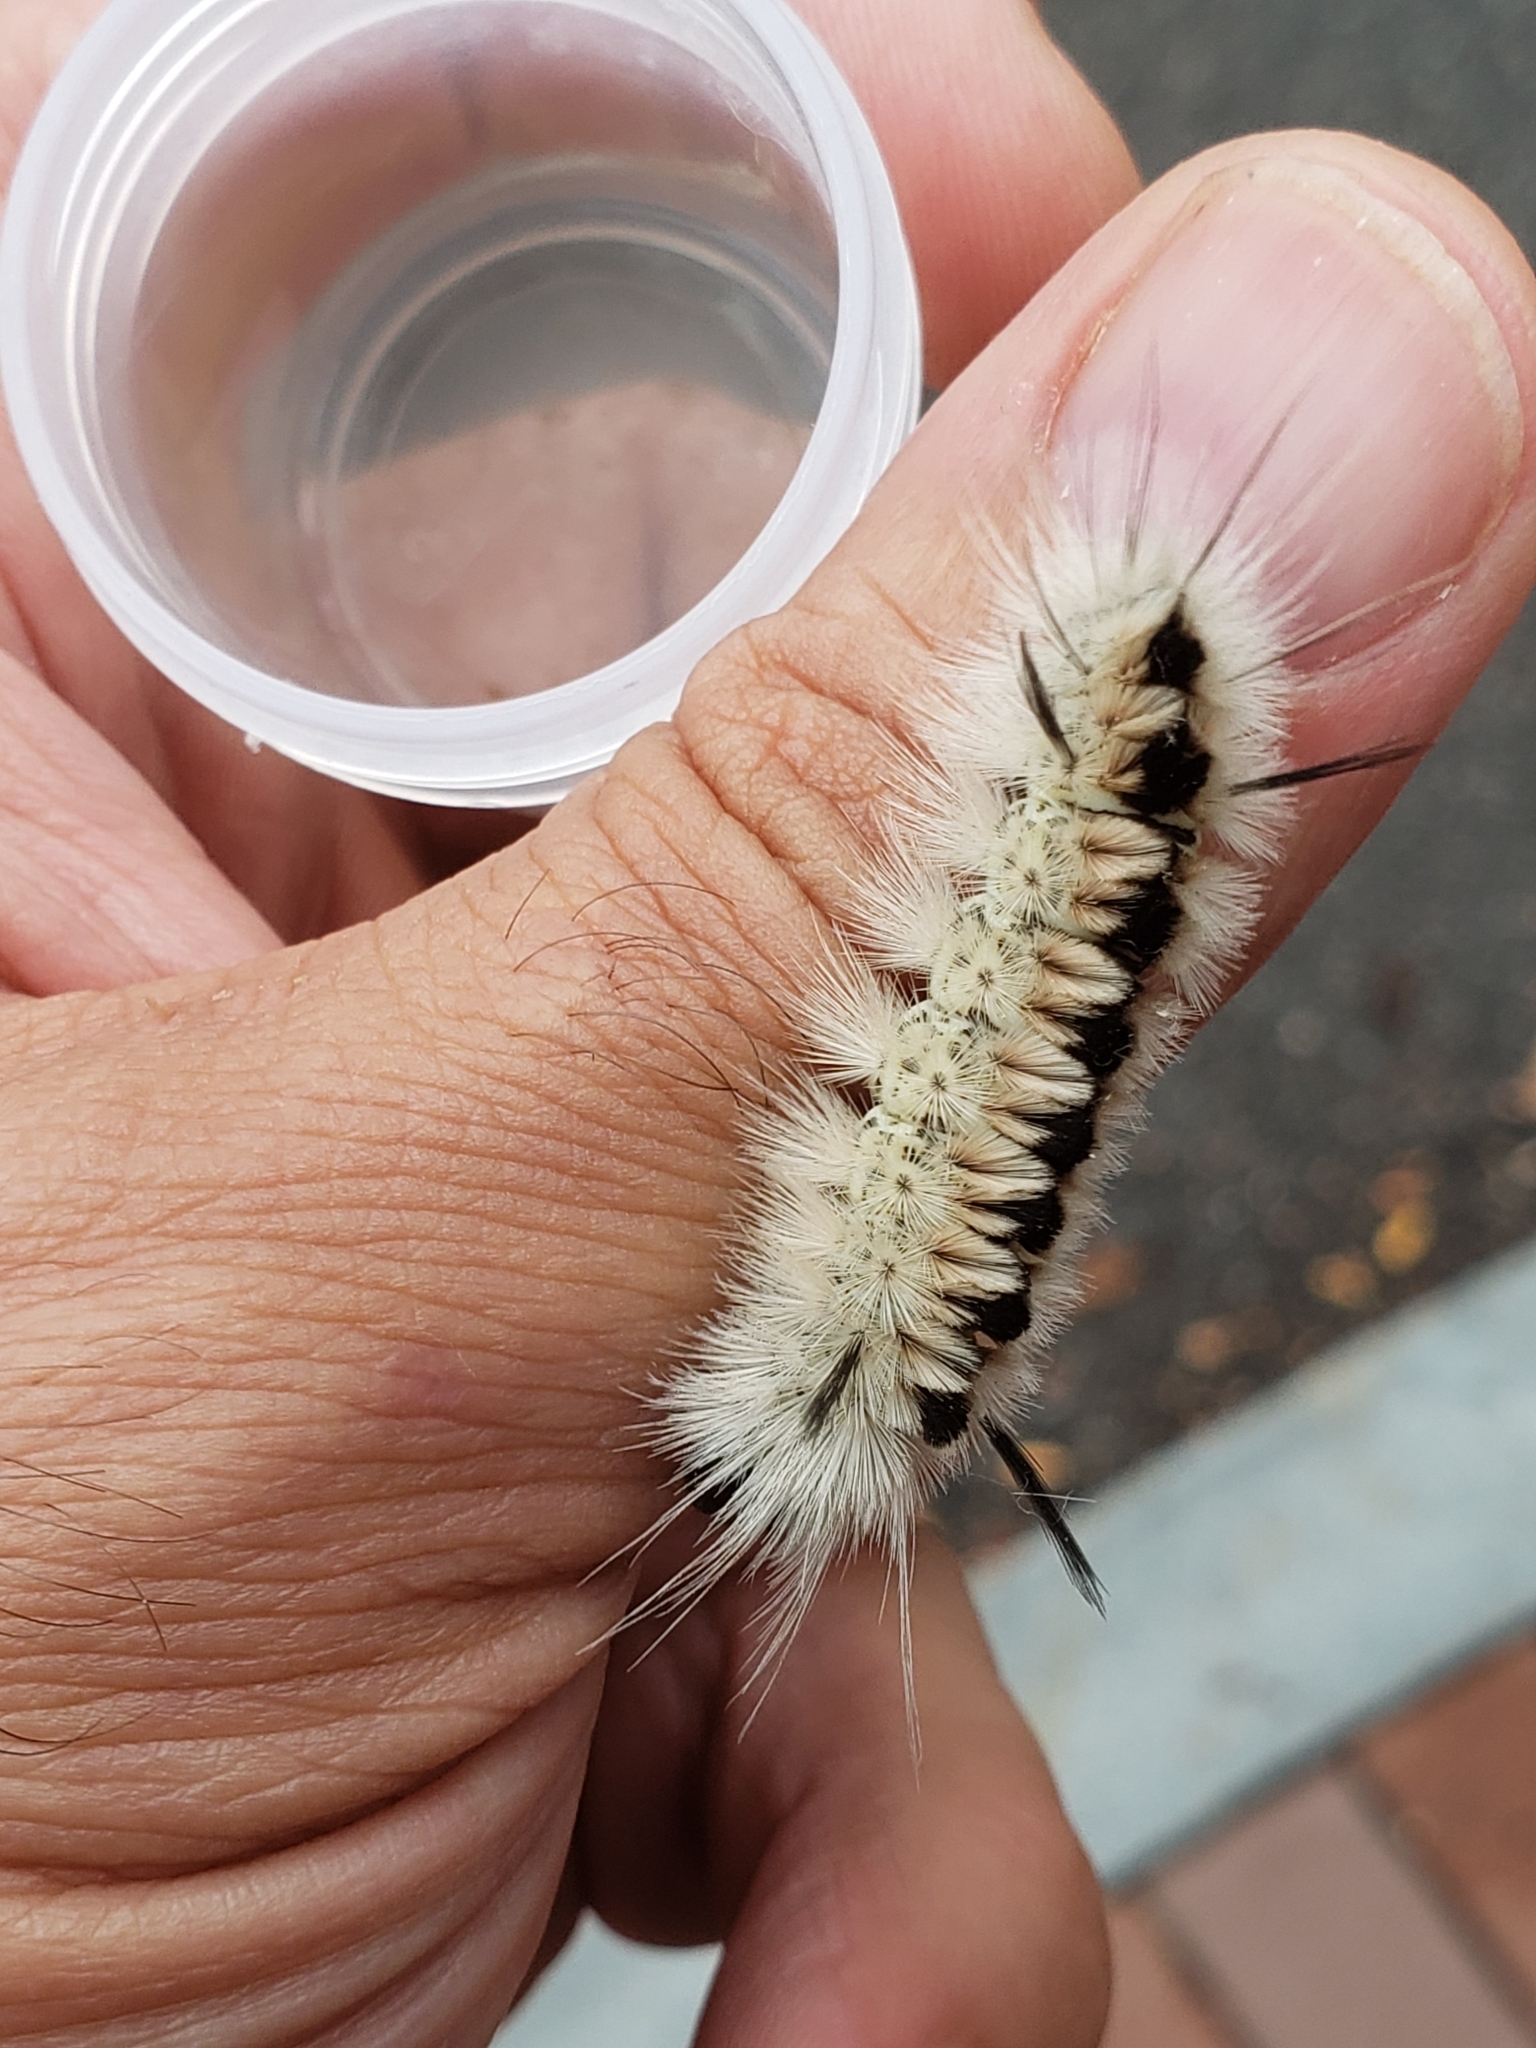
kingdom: Animalia
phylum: Arthropoda
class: Insecta
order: Lepidoptera
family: Erebidae
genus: Lophocampa
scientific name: Lophocampa caryae
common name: Hickory tussock moth
